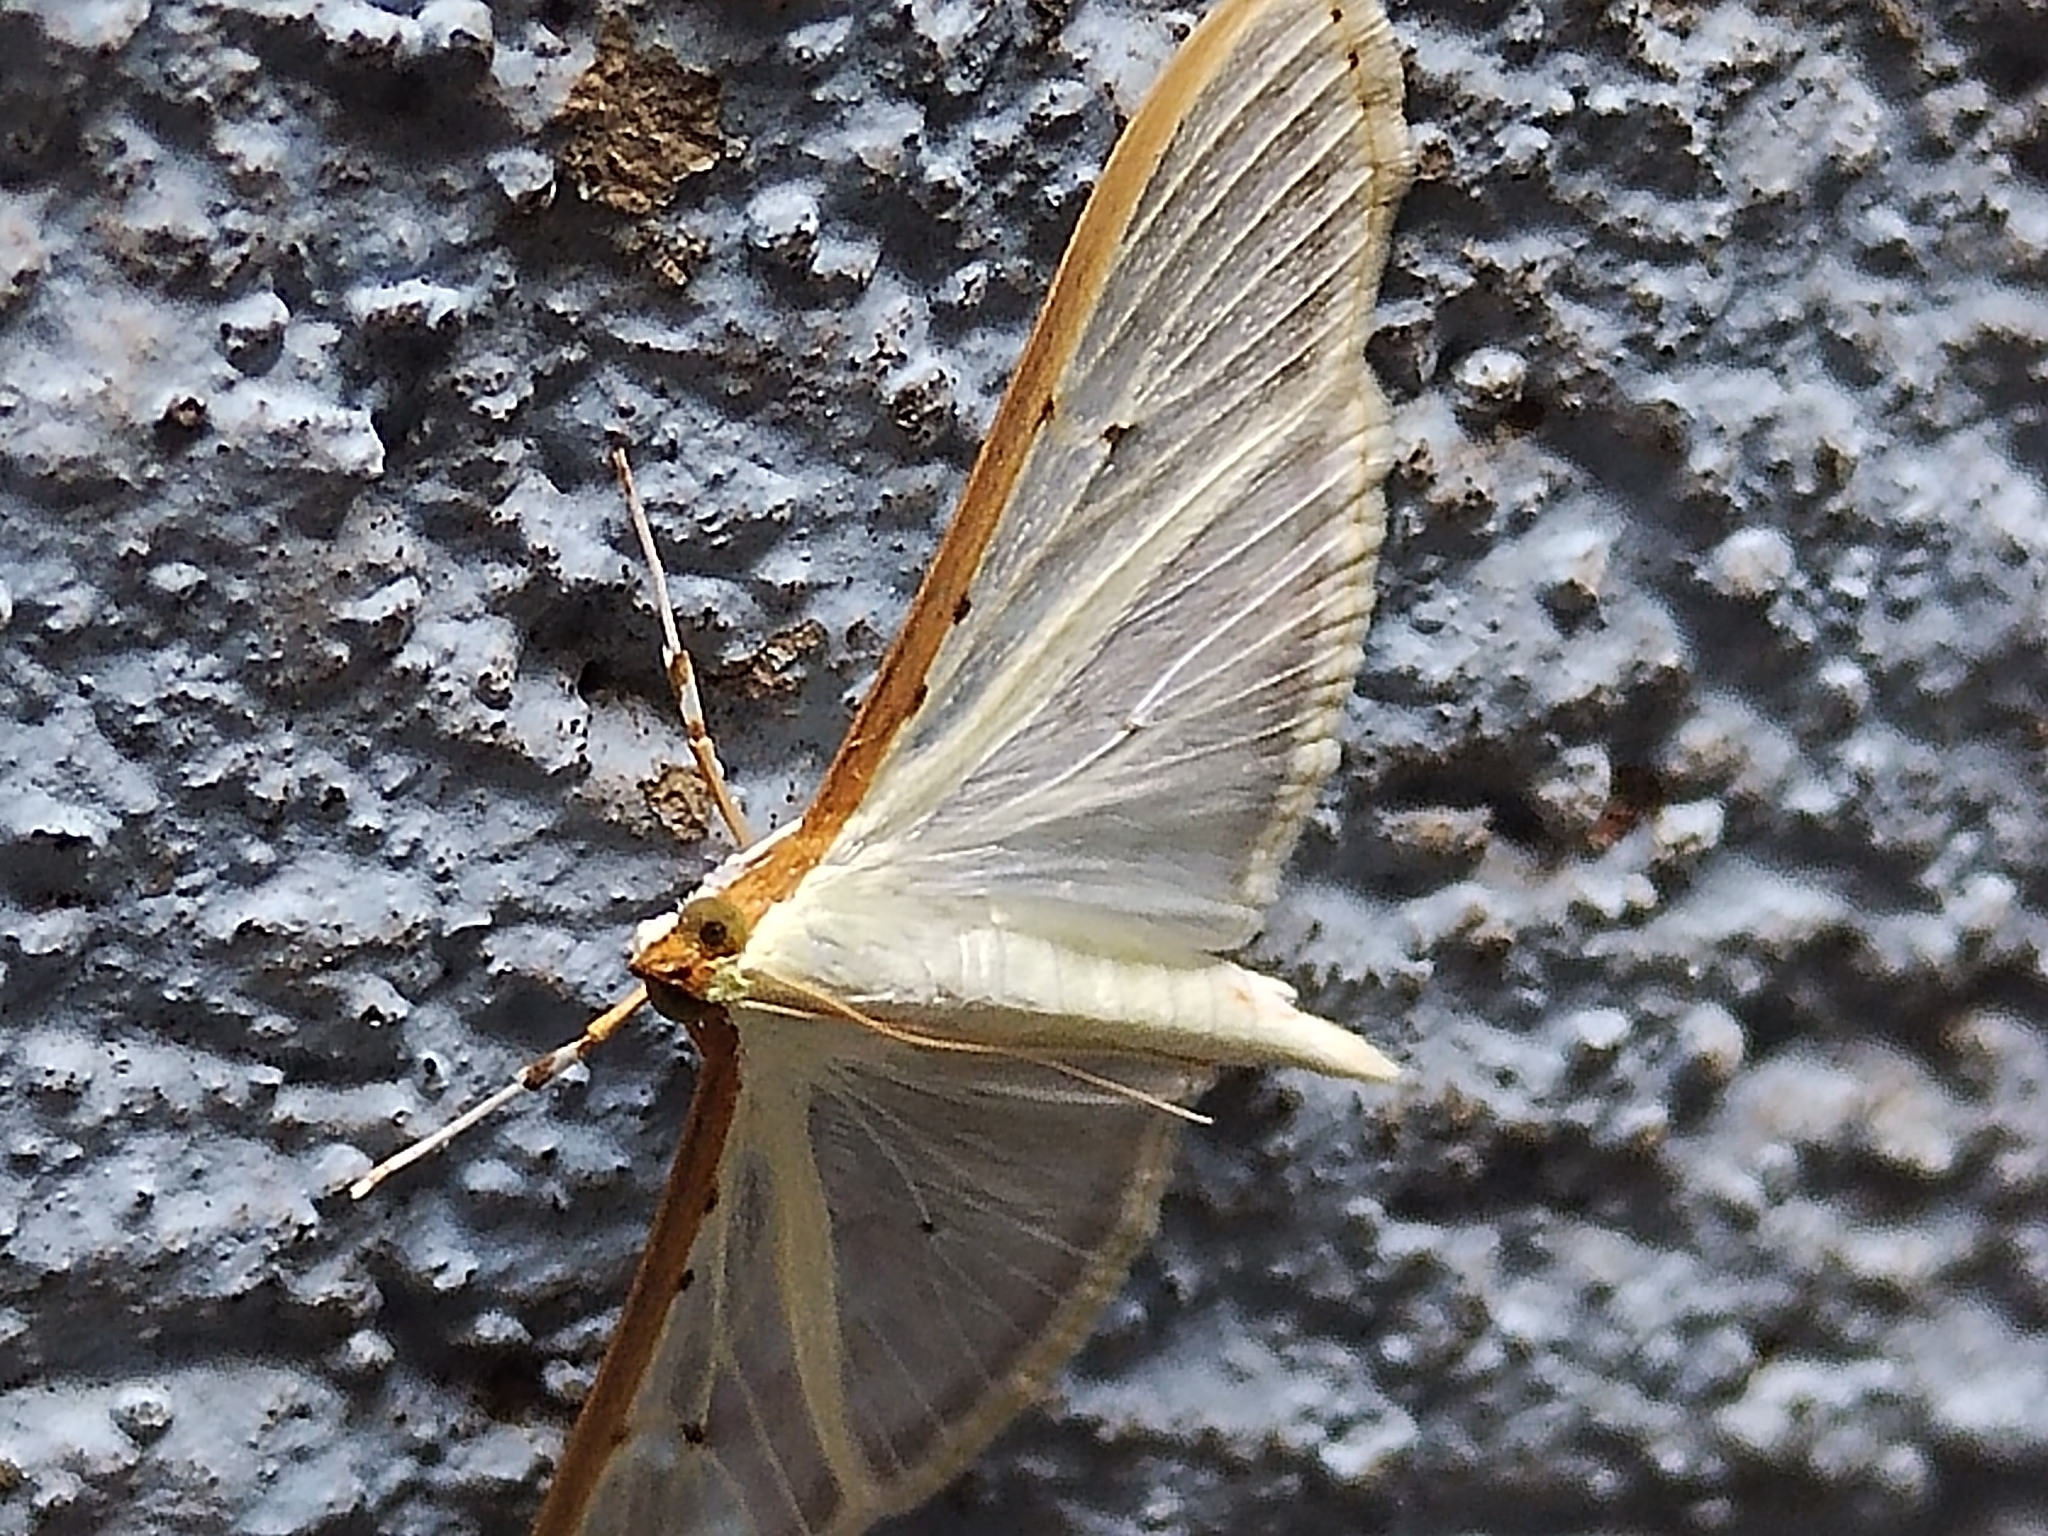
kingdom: Animalia
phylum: Arthropoda
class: Insecta
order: Lepidoptera
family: Crambidae
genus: Palpita
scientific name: Palpita quadristigmalis
